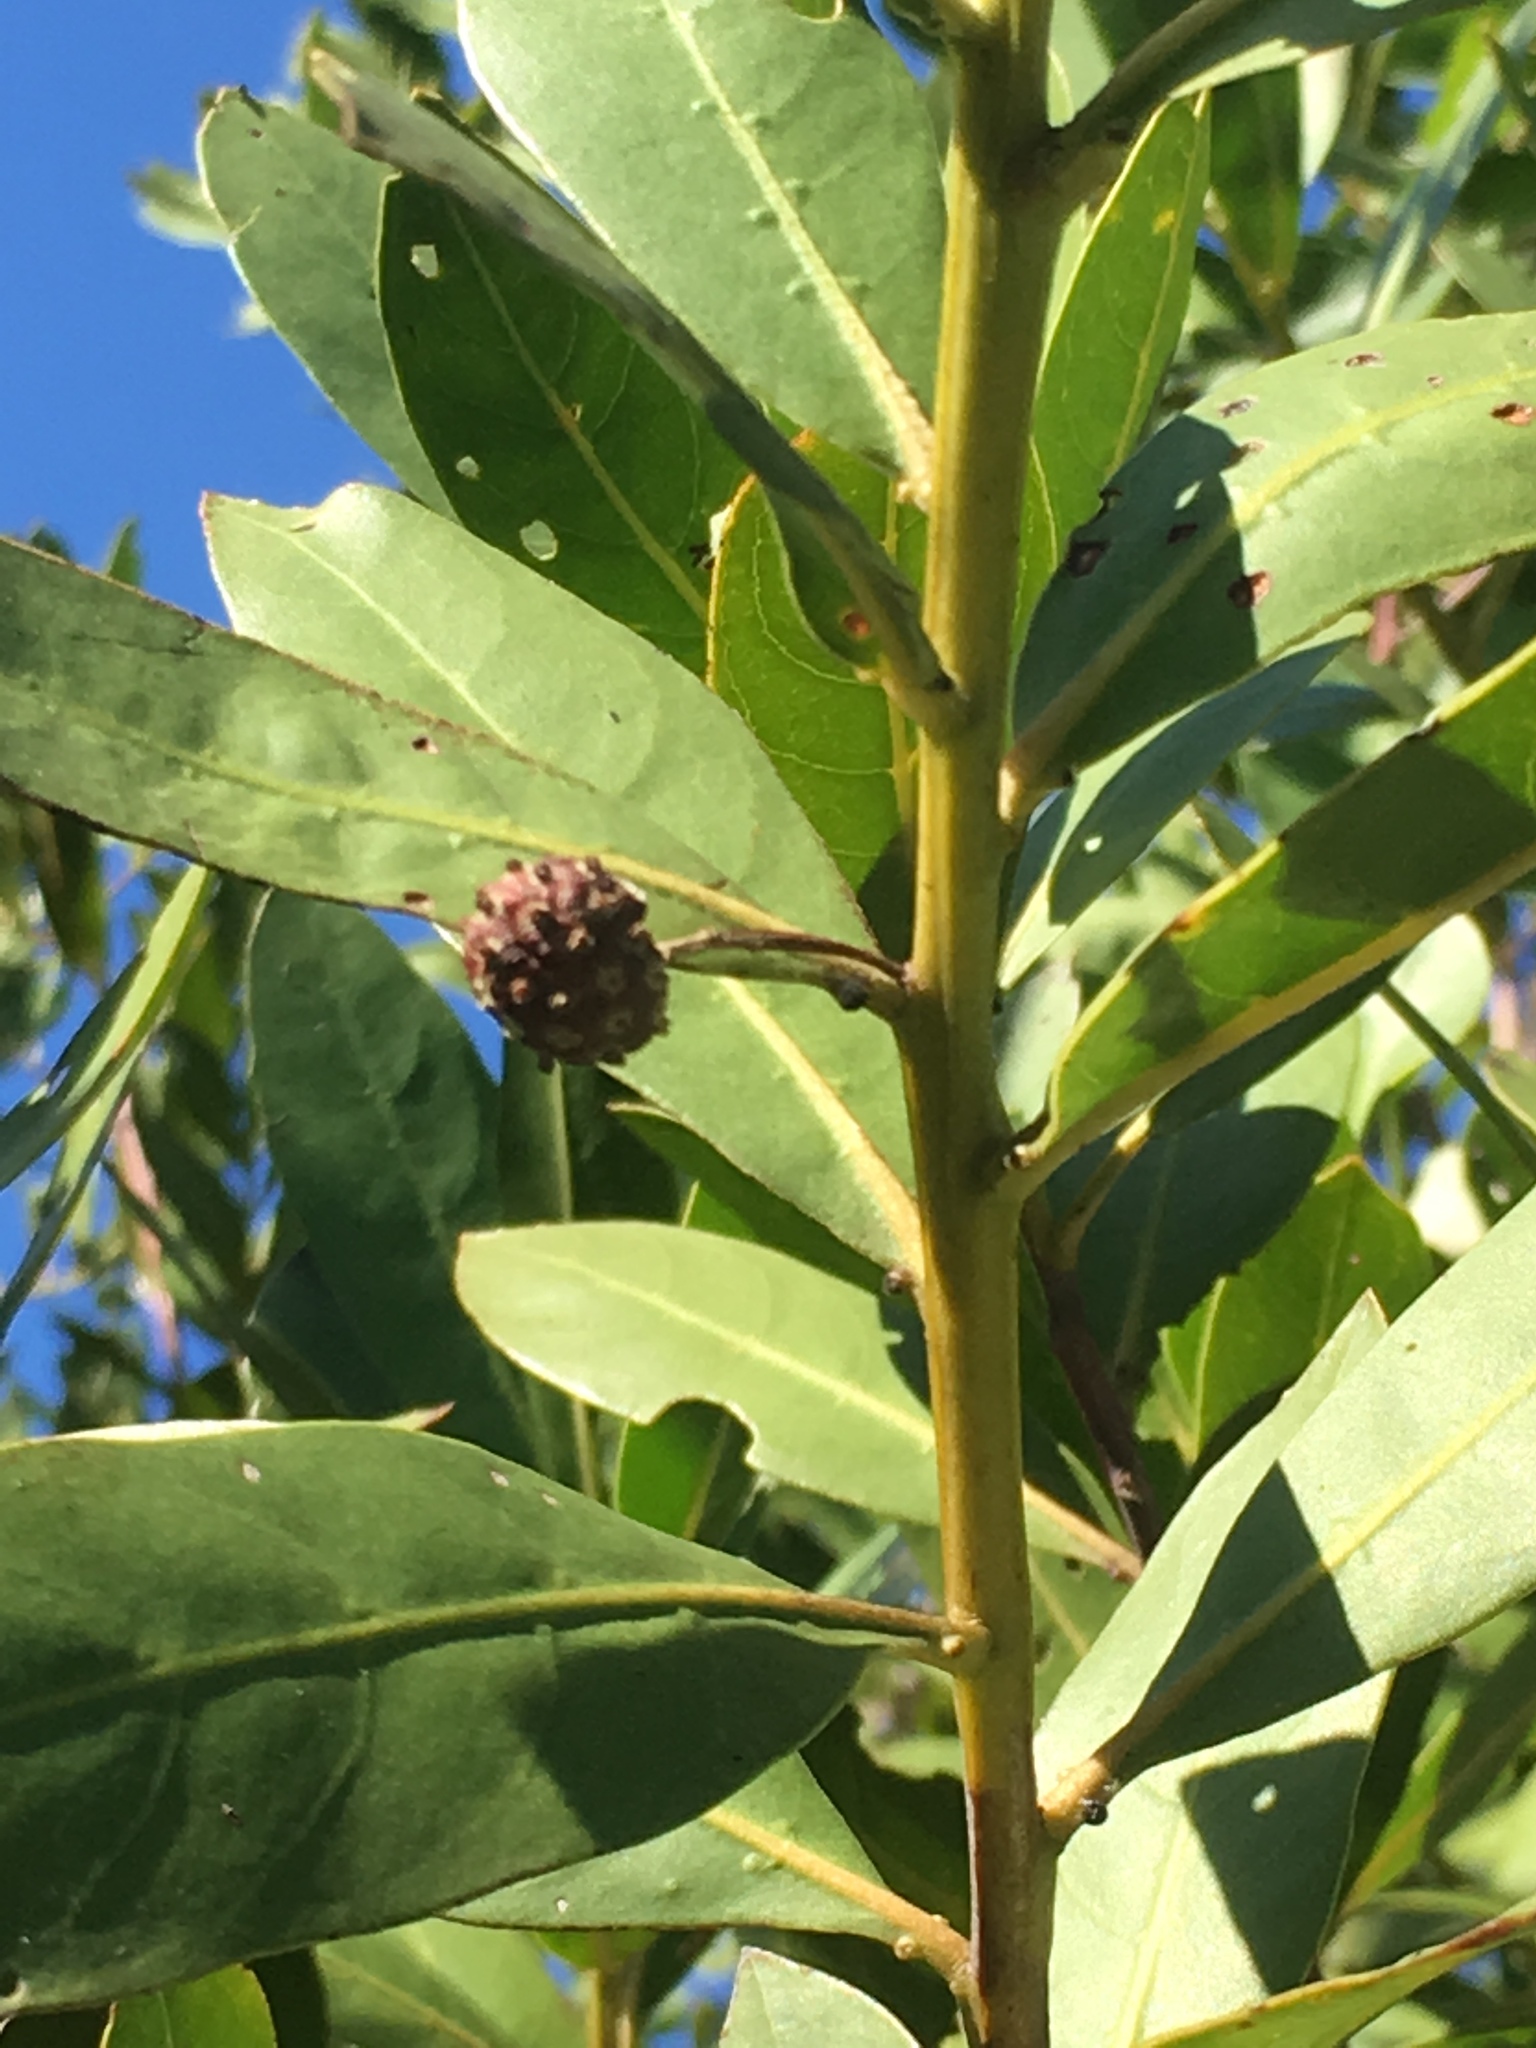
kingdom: Plantae
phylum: Tracheophyta
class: Magnoliopsida
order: Myrtales
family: Combretaceae
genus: Conocarpus
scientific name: Conocarpus erectus
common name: Button mangrove
